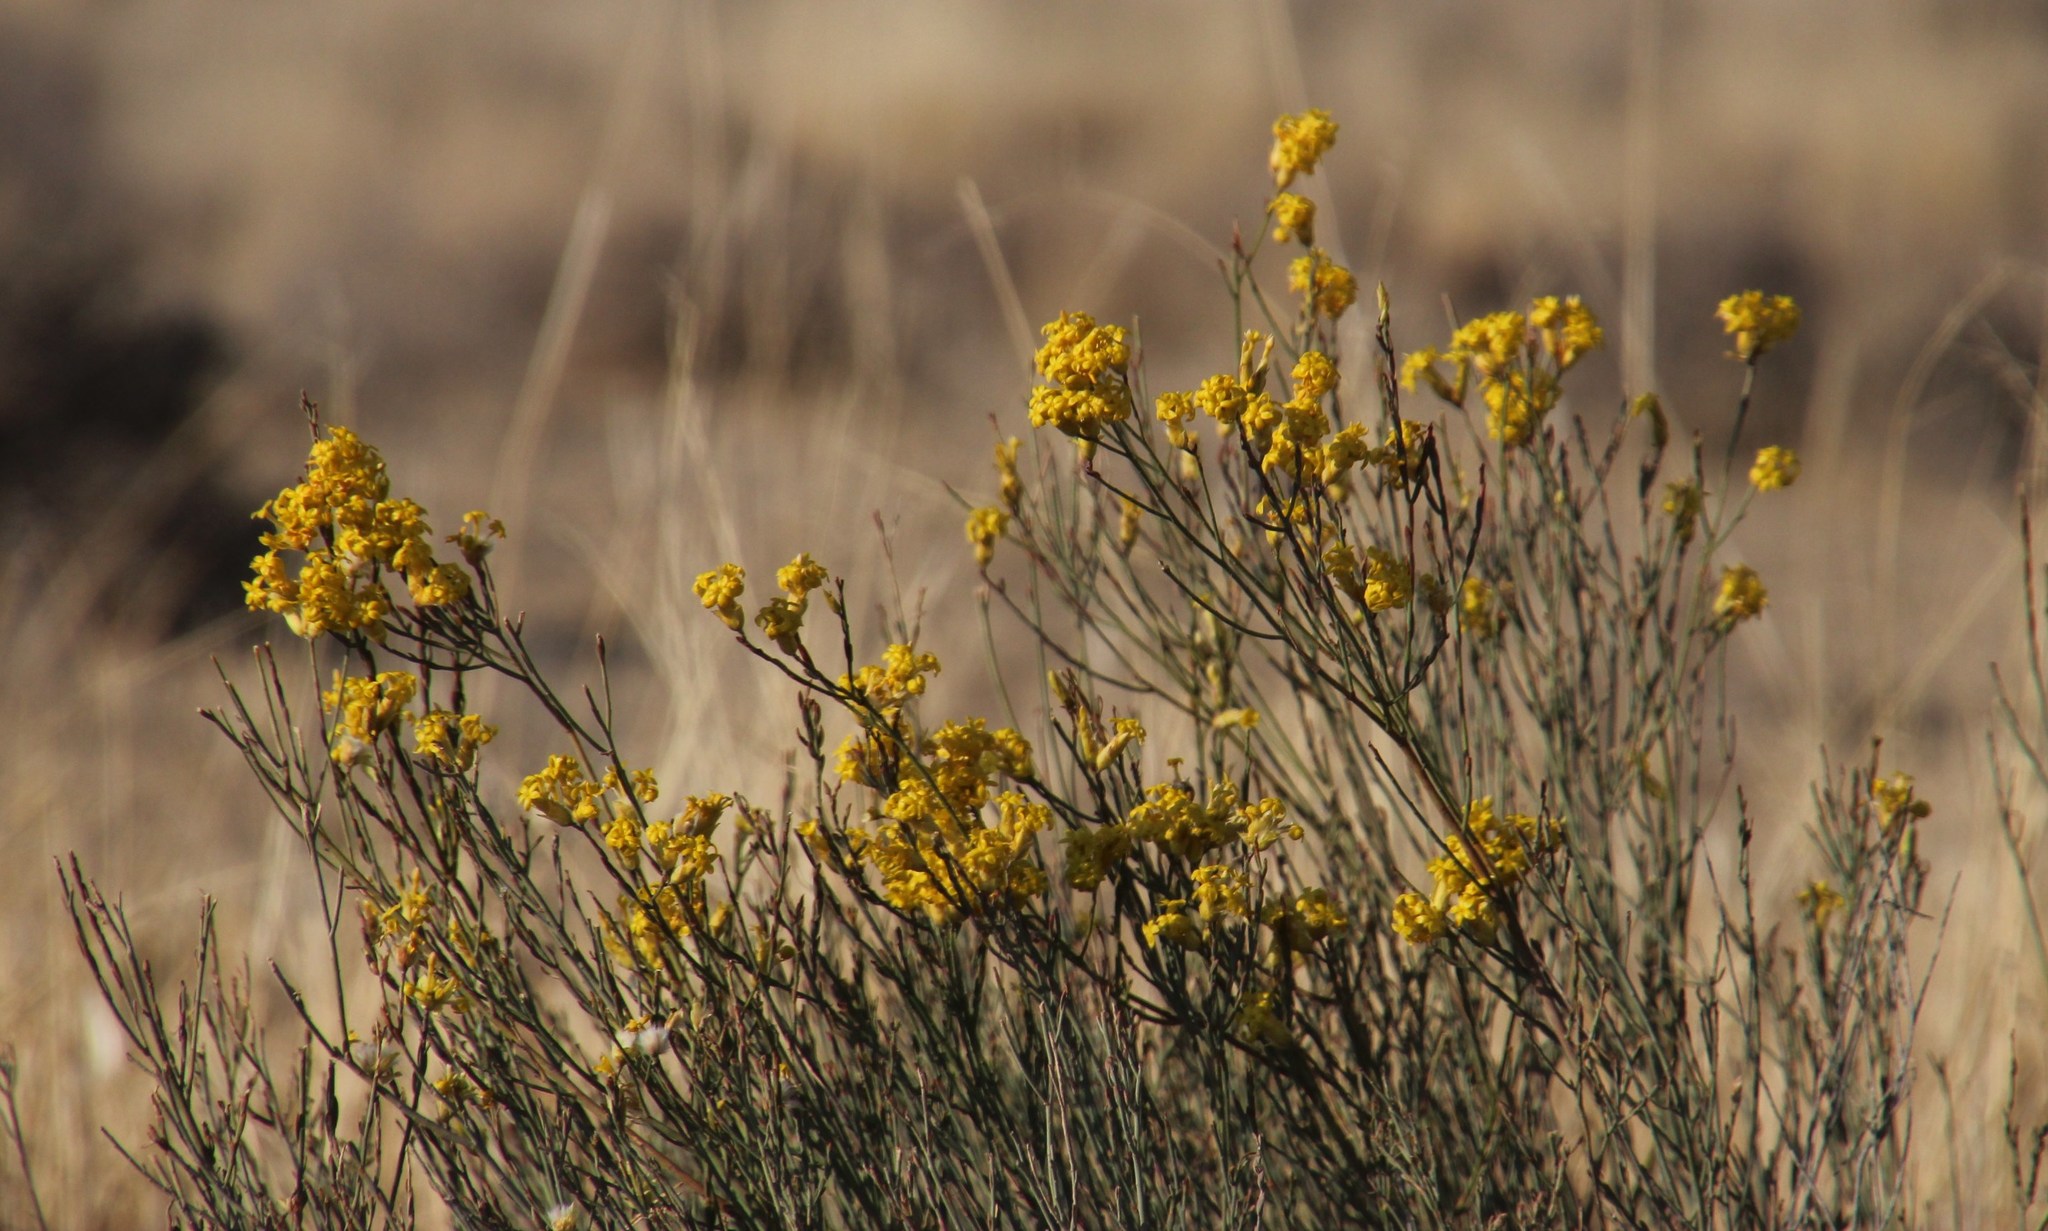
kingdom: Plantae
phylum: Tracheophyta
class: Magnoliopsida
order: Malvales
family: Thymelaeaceae
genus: Gnidia
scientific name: Gnidia polycephala
